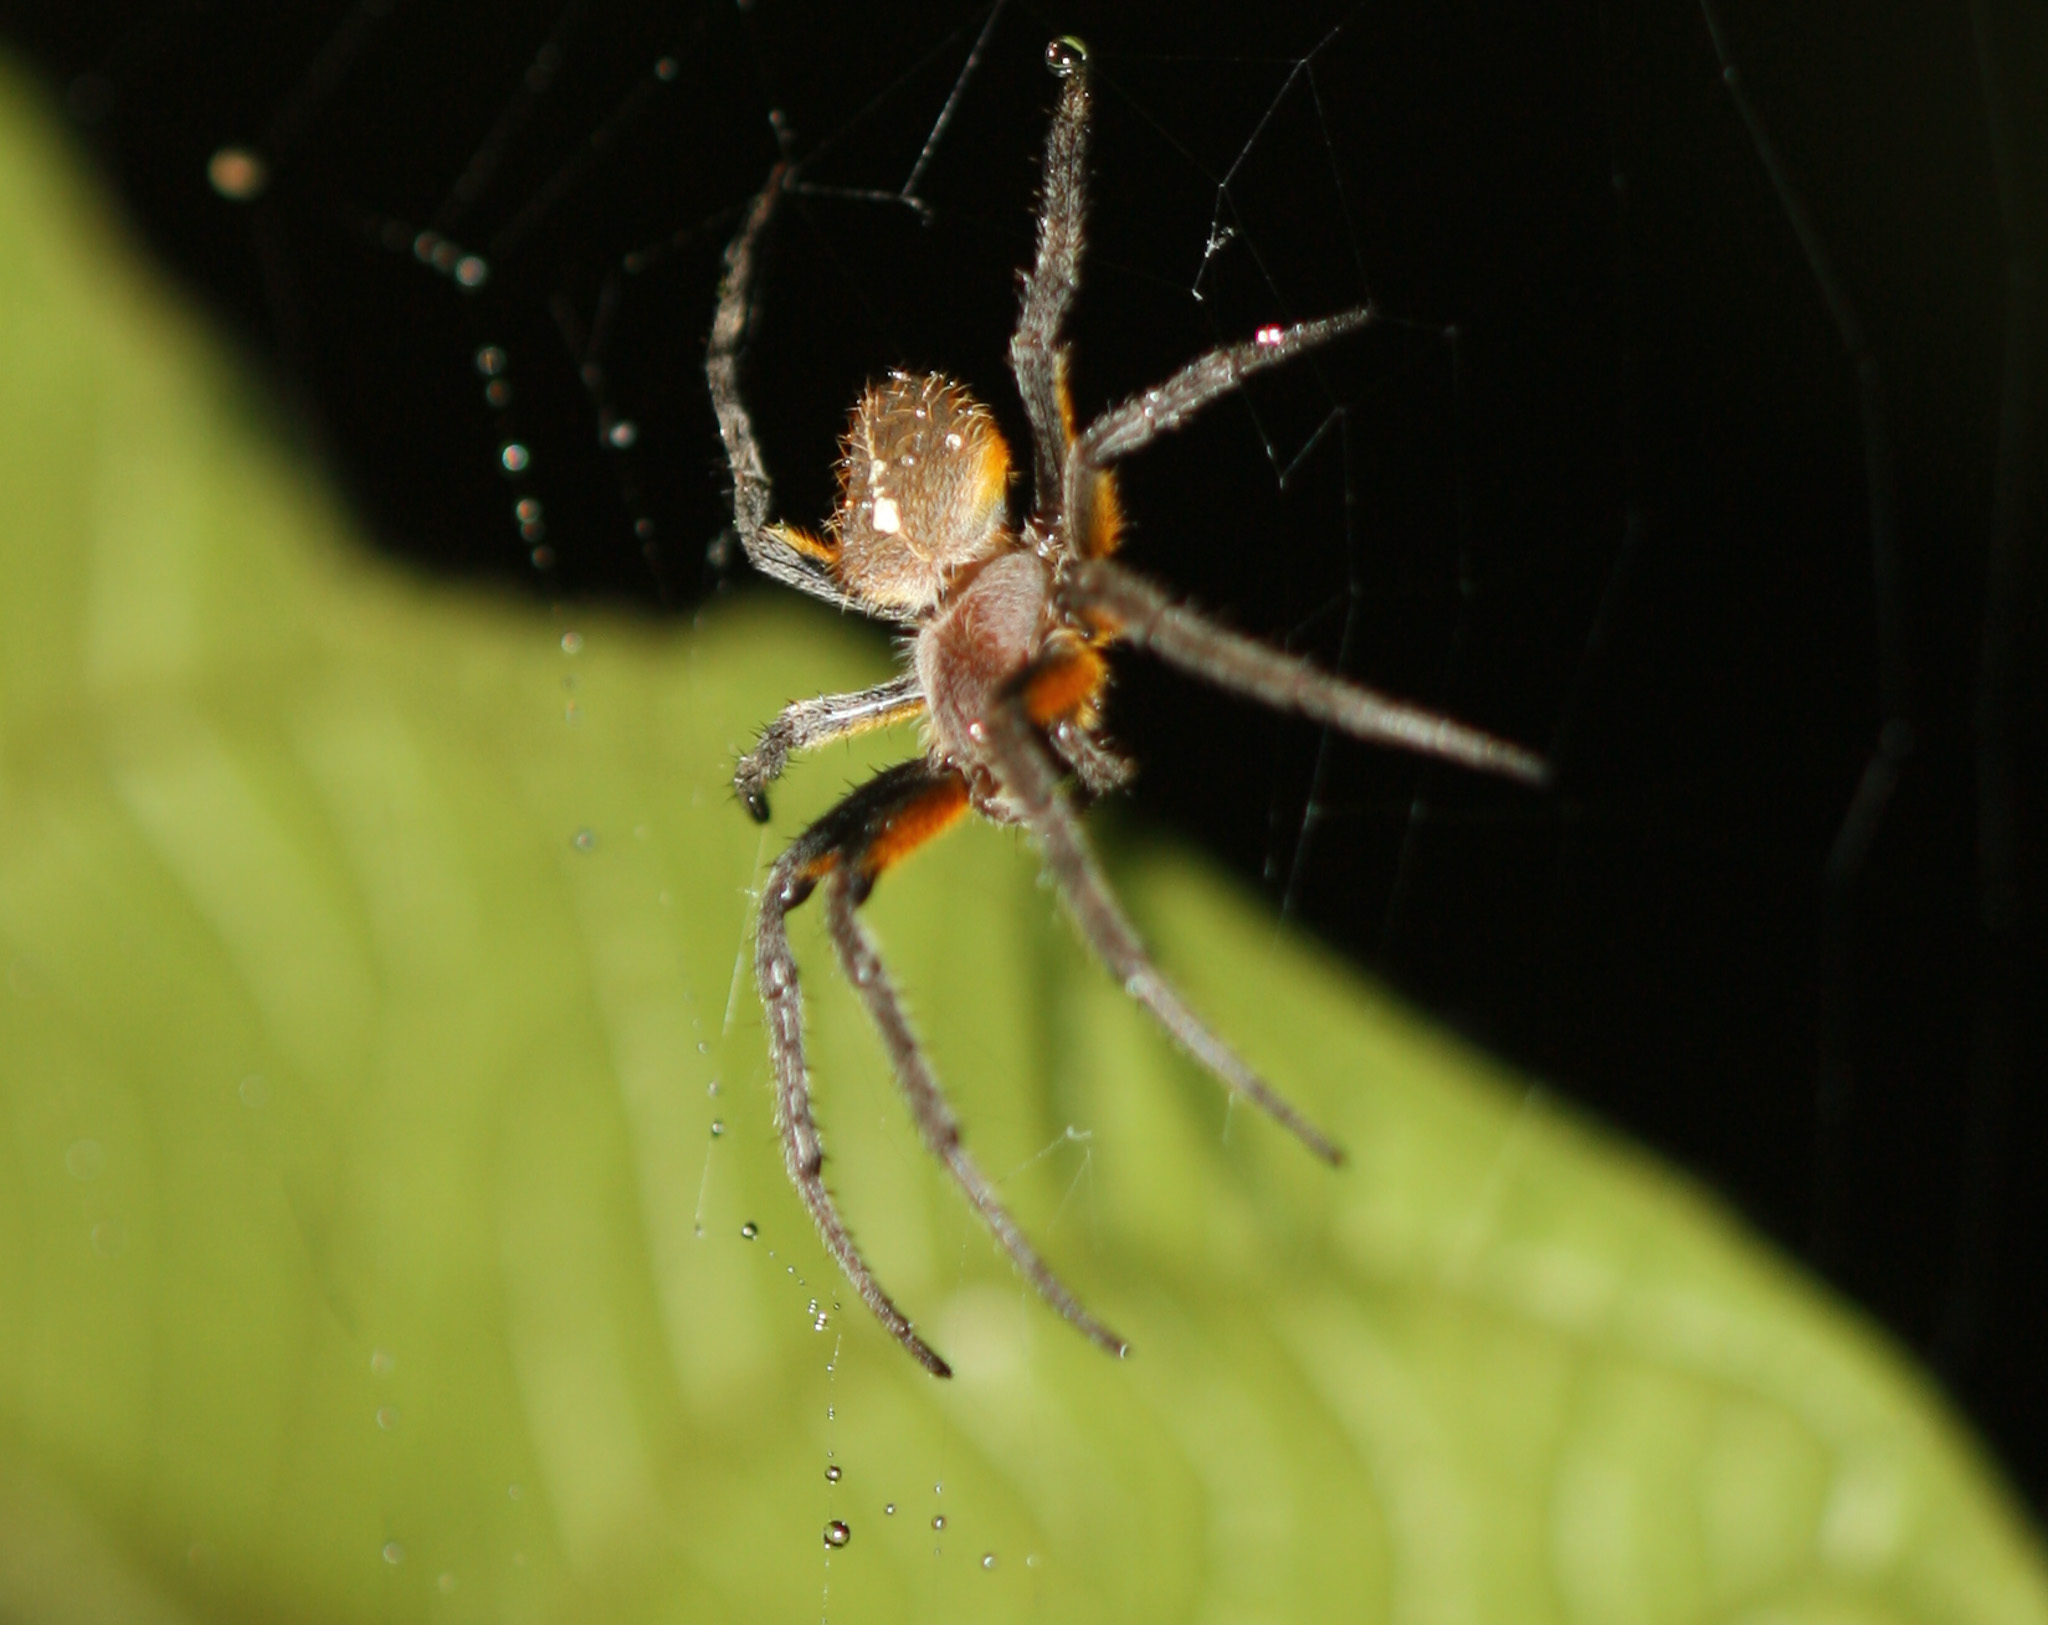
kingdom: Animalia
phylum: Arthropoda
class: Arachnida
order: Araneae
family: Araneidae
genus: Eriophora
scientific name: Eriophora fuliginea
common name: Orb weavers
